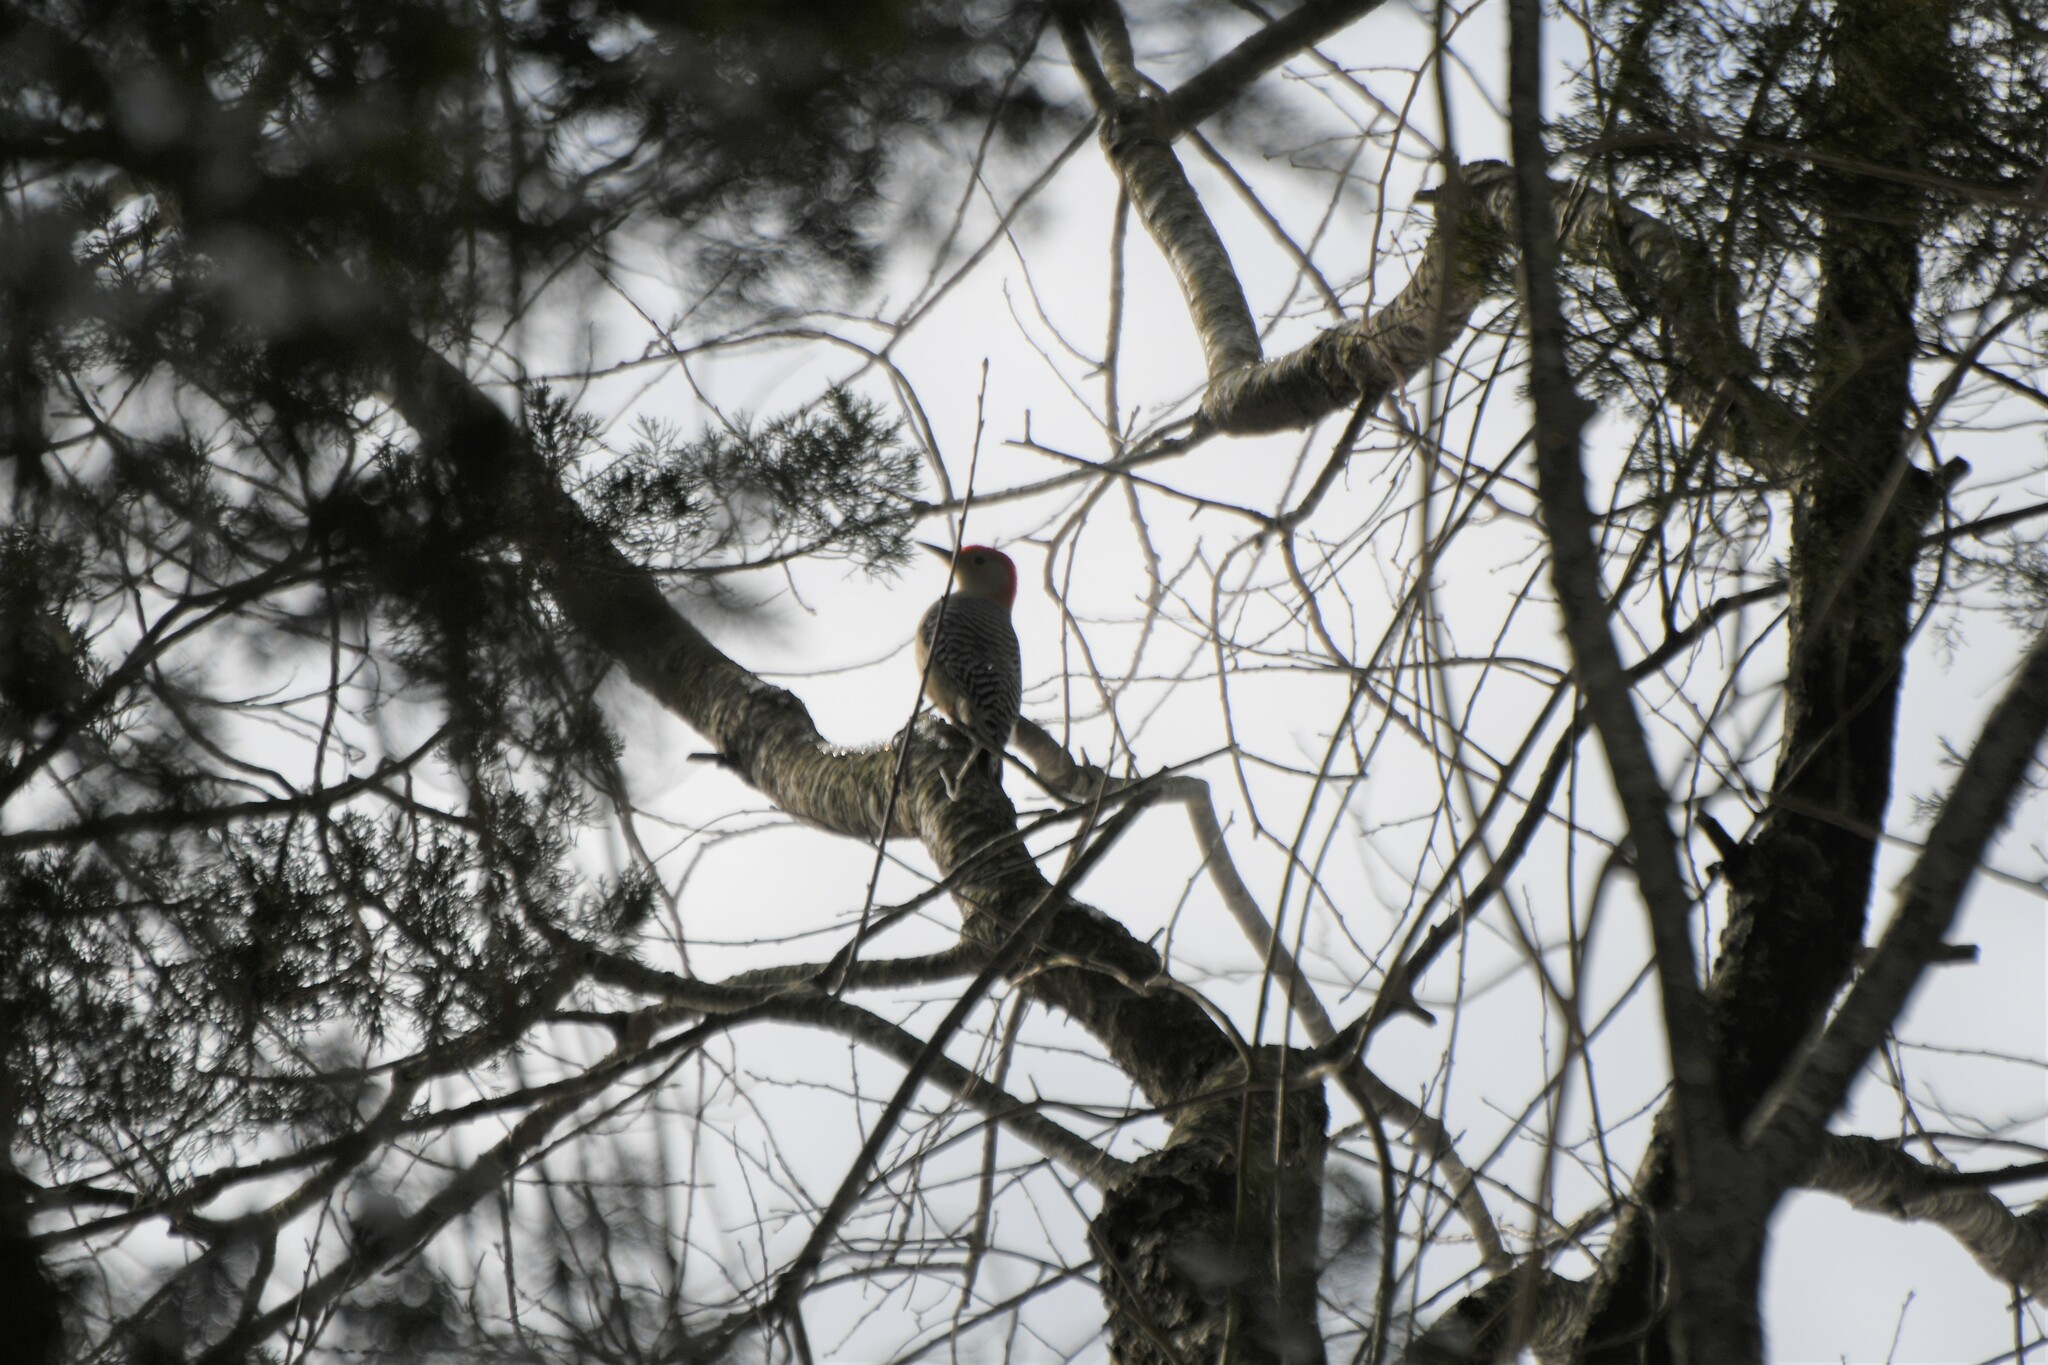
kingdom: Animalia
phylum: Chordata
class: Aves
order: Piciformes
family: Picidae
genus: Melanerpes
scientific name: Melanerpes carolinus
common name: Red-bellied woodpecker
